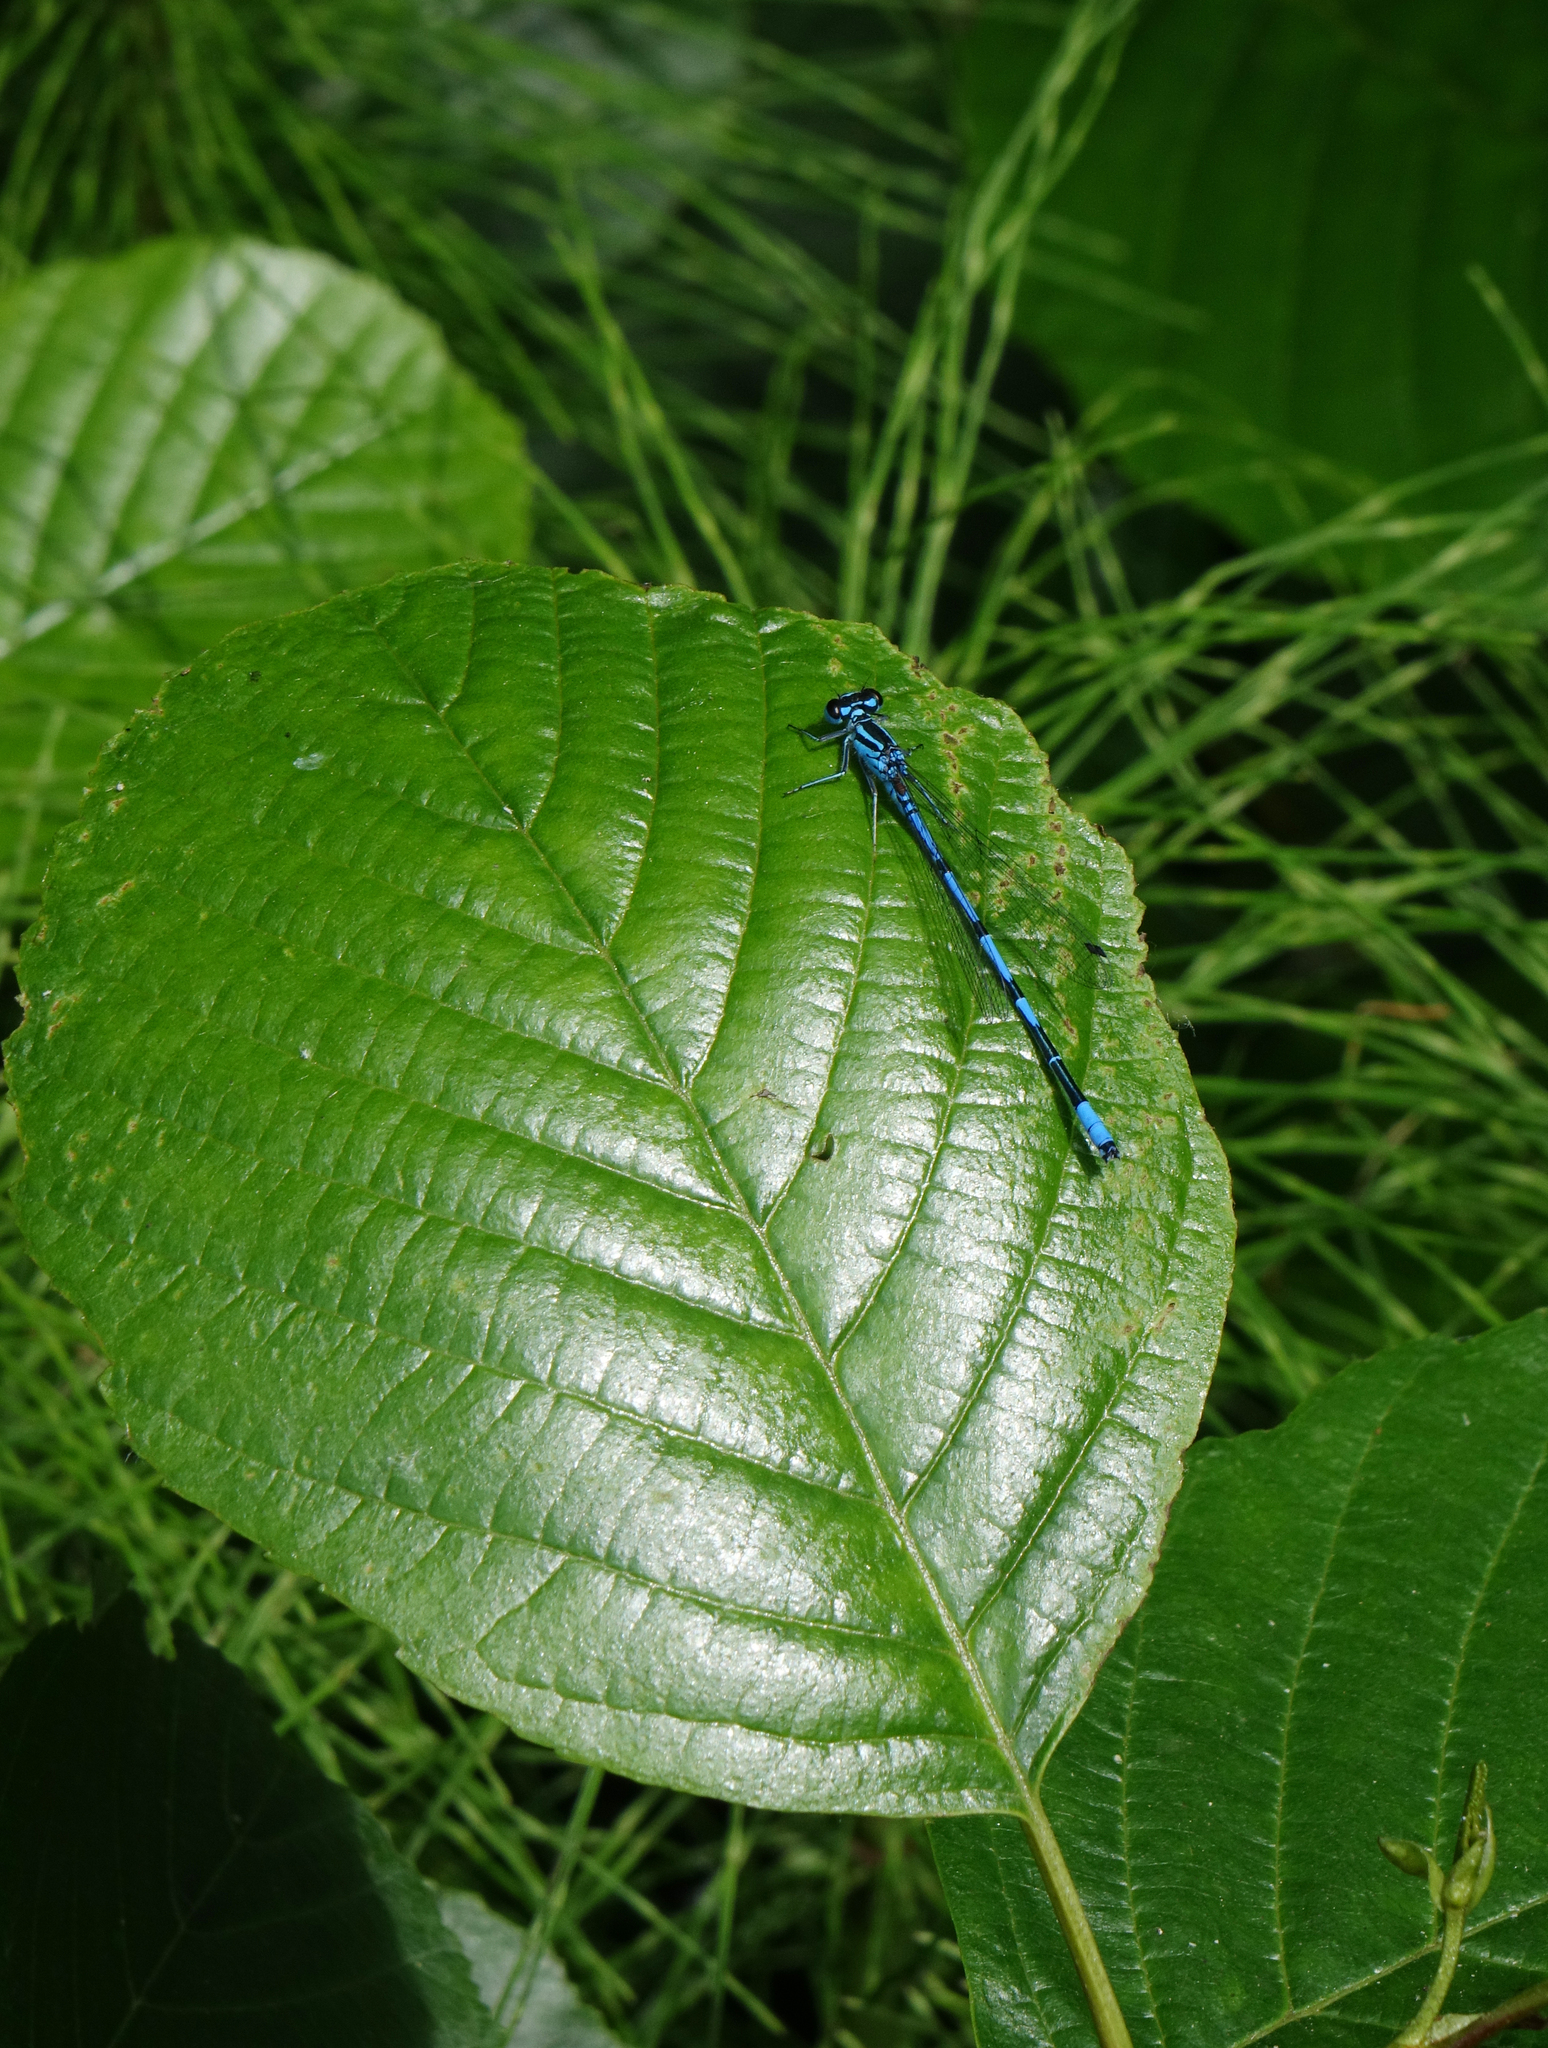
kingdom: Plantae
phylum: Tracheophyta
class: Magnoliopsida
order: Fagales
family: Betulaceae
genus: Alnus
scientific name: Alnus glutinosa
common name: Black alder
